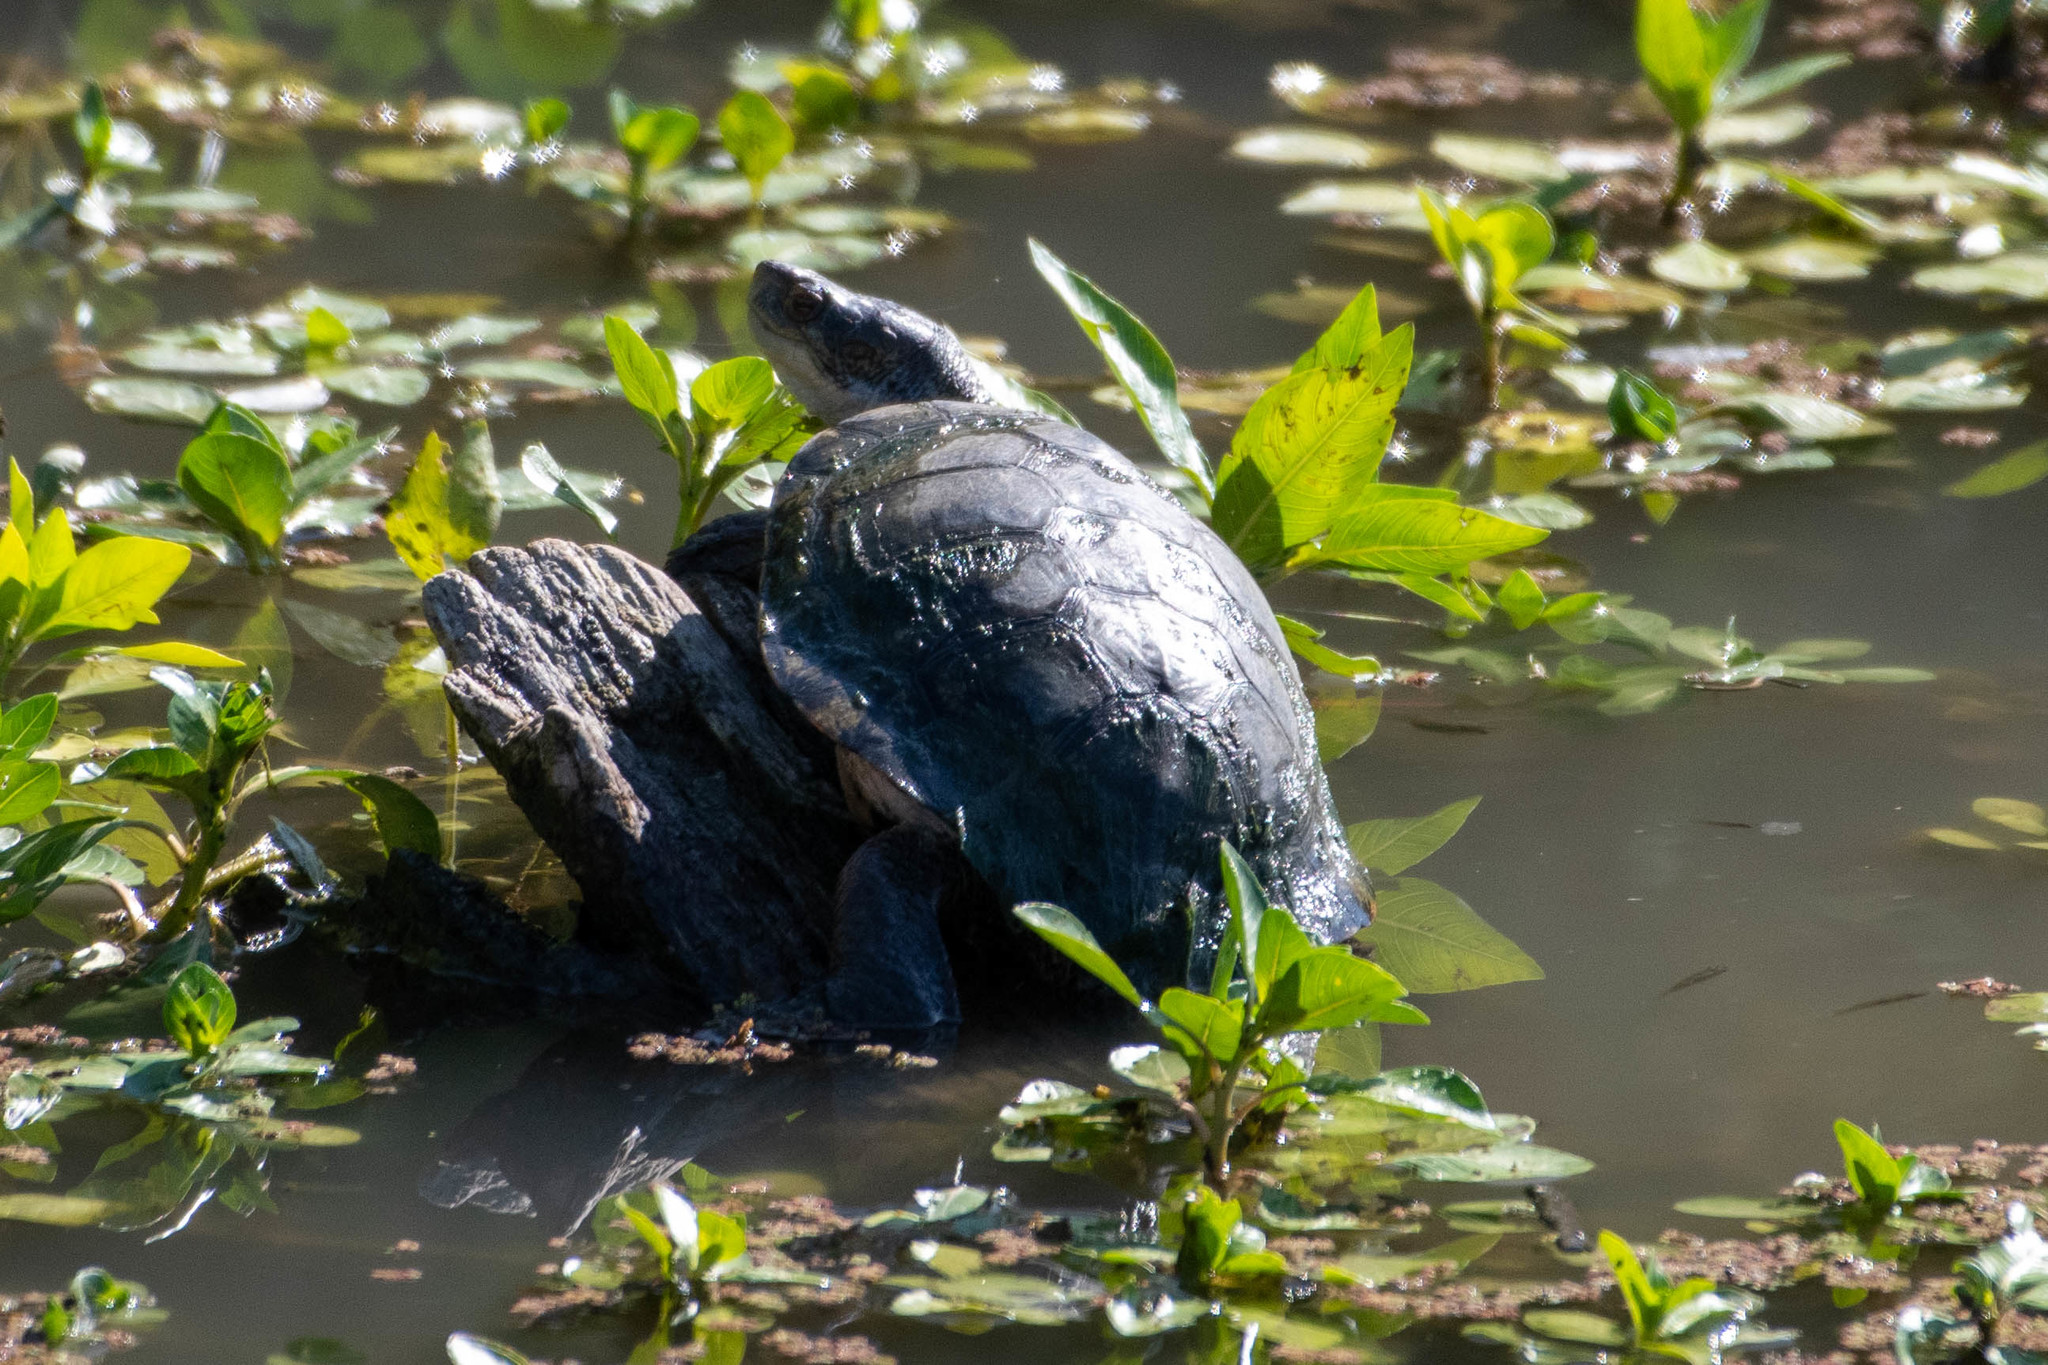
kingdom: Animalia
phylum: Chordata
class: Testudines
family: Emydidae
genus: Actinemys
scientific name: Actinemys marmorata
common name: Western pond turtle
